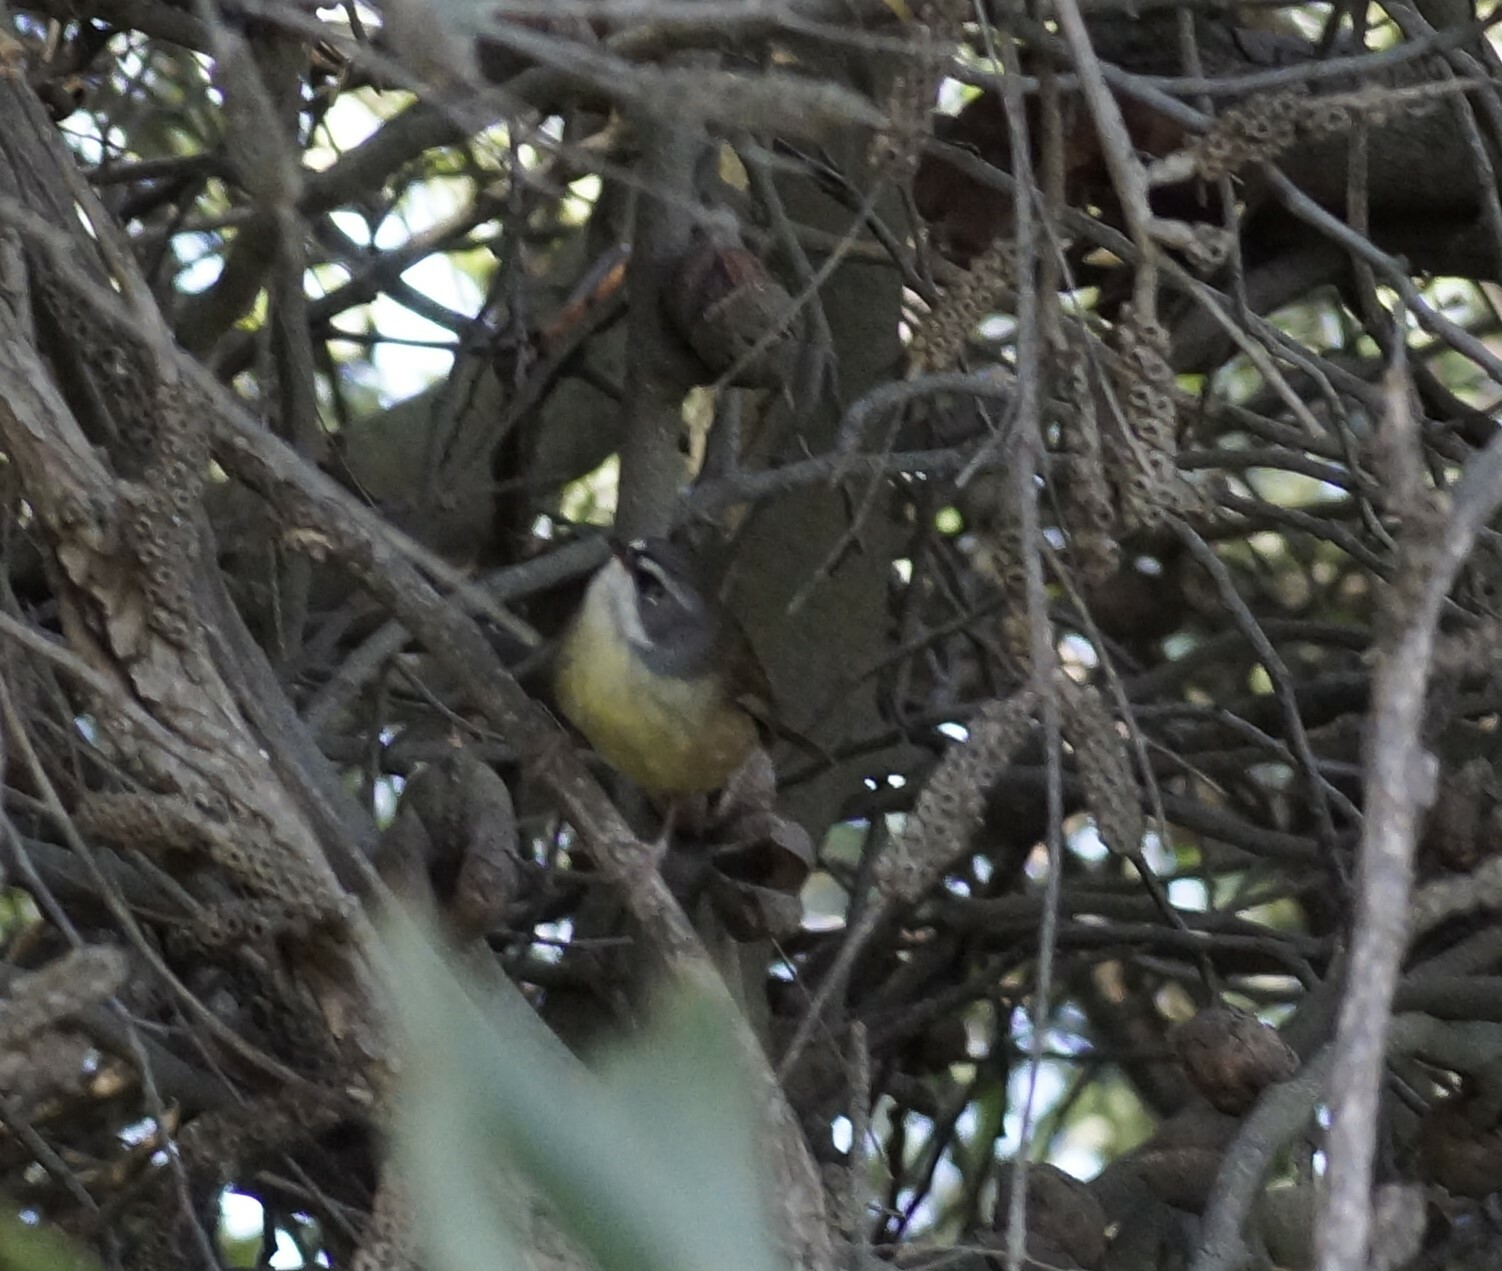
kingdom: Animalia
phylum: Chordata
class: Aves
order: Passeriformes
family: Acanthizidae
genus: Sericornis
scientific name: Sericornis frontalis
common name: White-browed scrubwren
